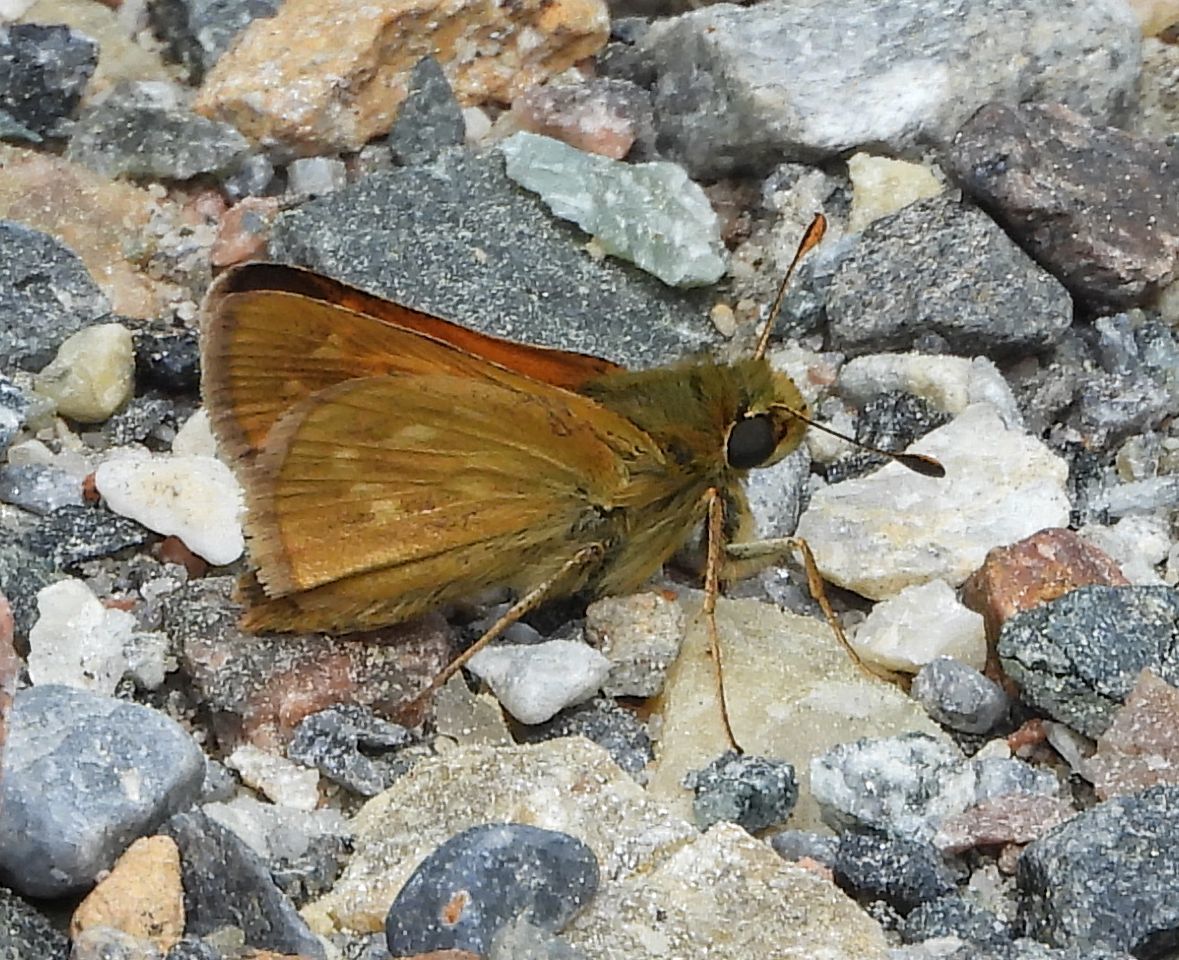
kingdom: Animalia
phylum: Arthropoda
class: Insecta
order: Lepidoptera
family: Hesperiidae
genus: Hesperia
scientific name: Hesperia sassacus
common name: Indian skipper
